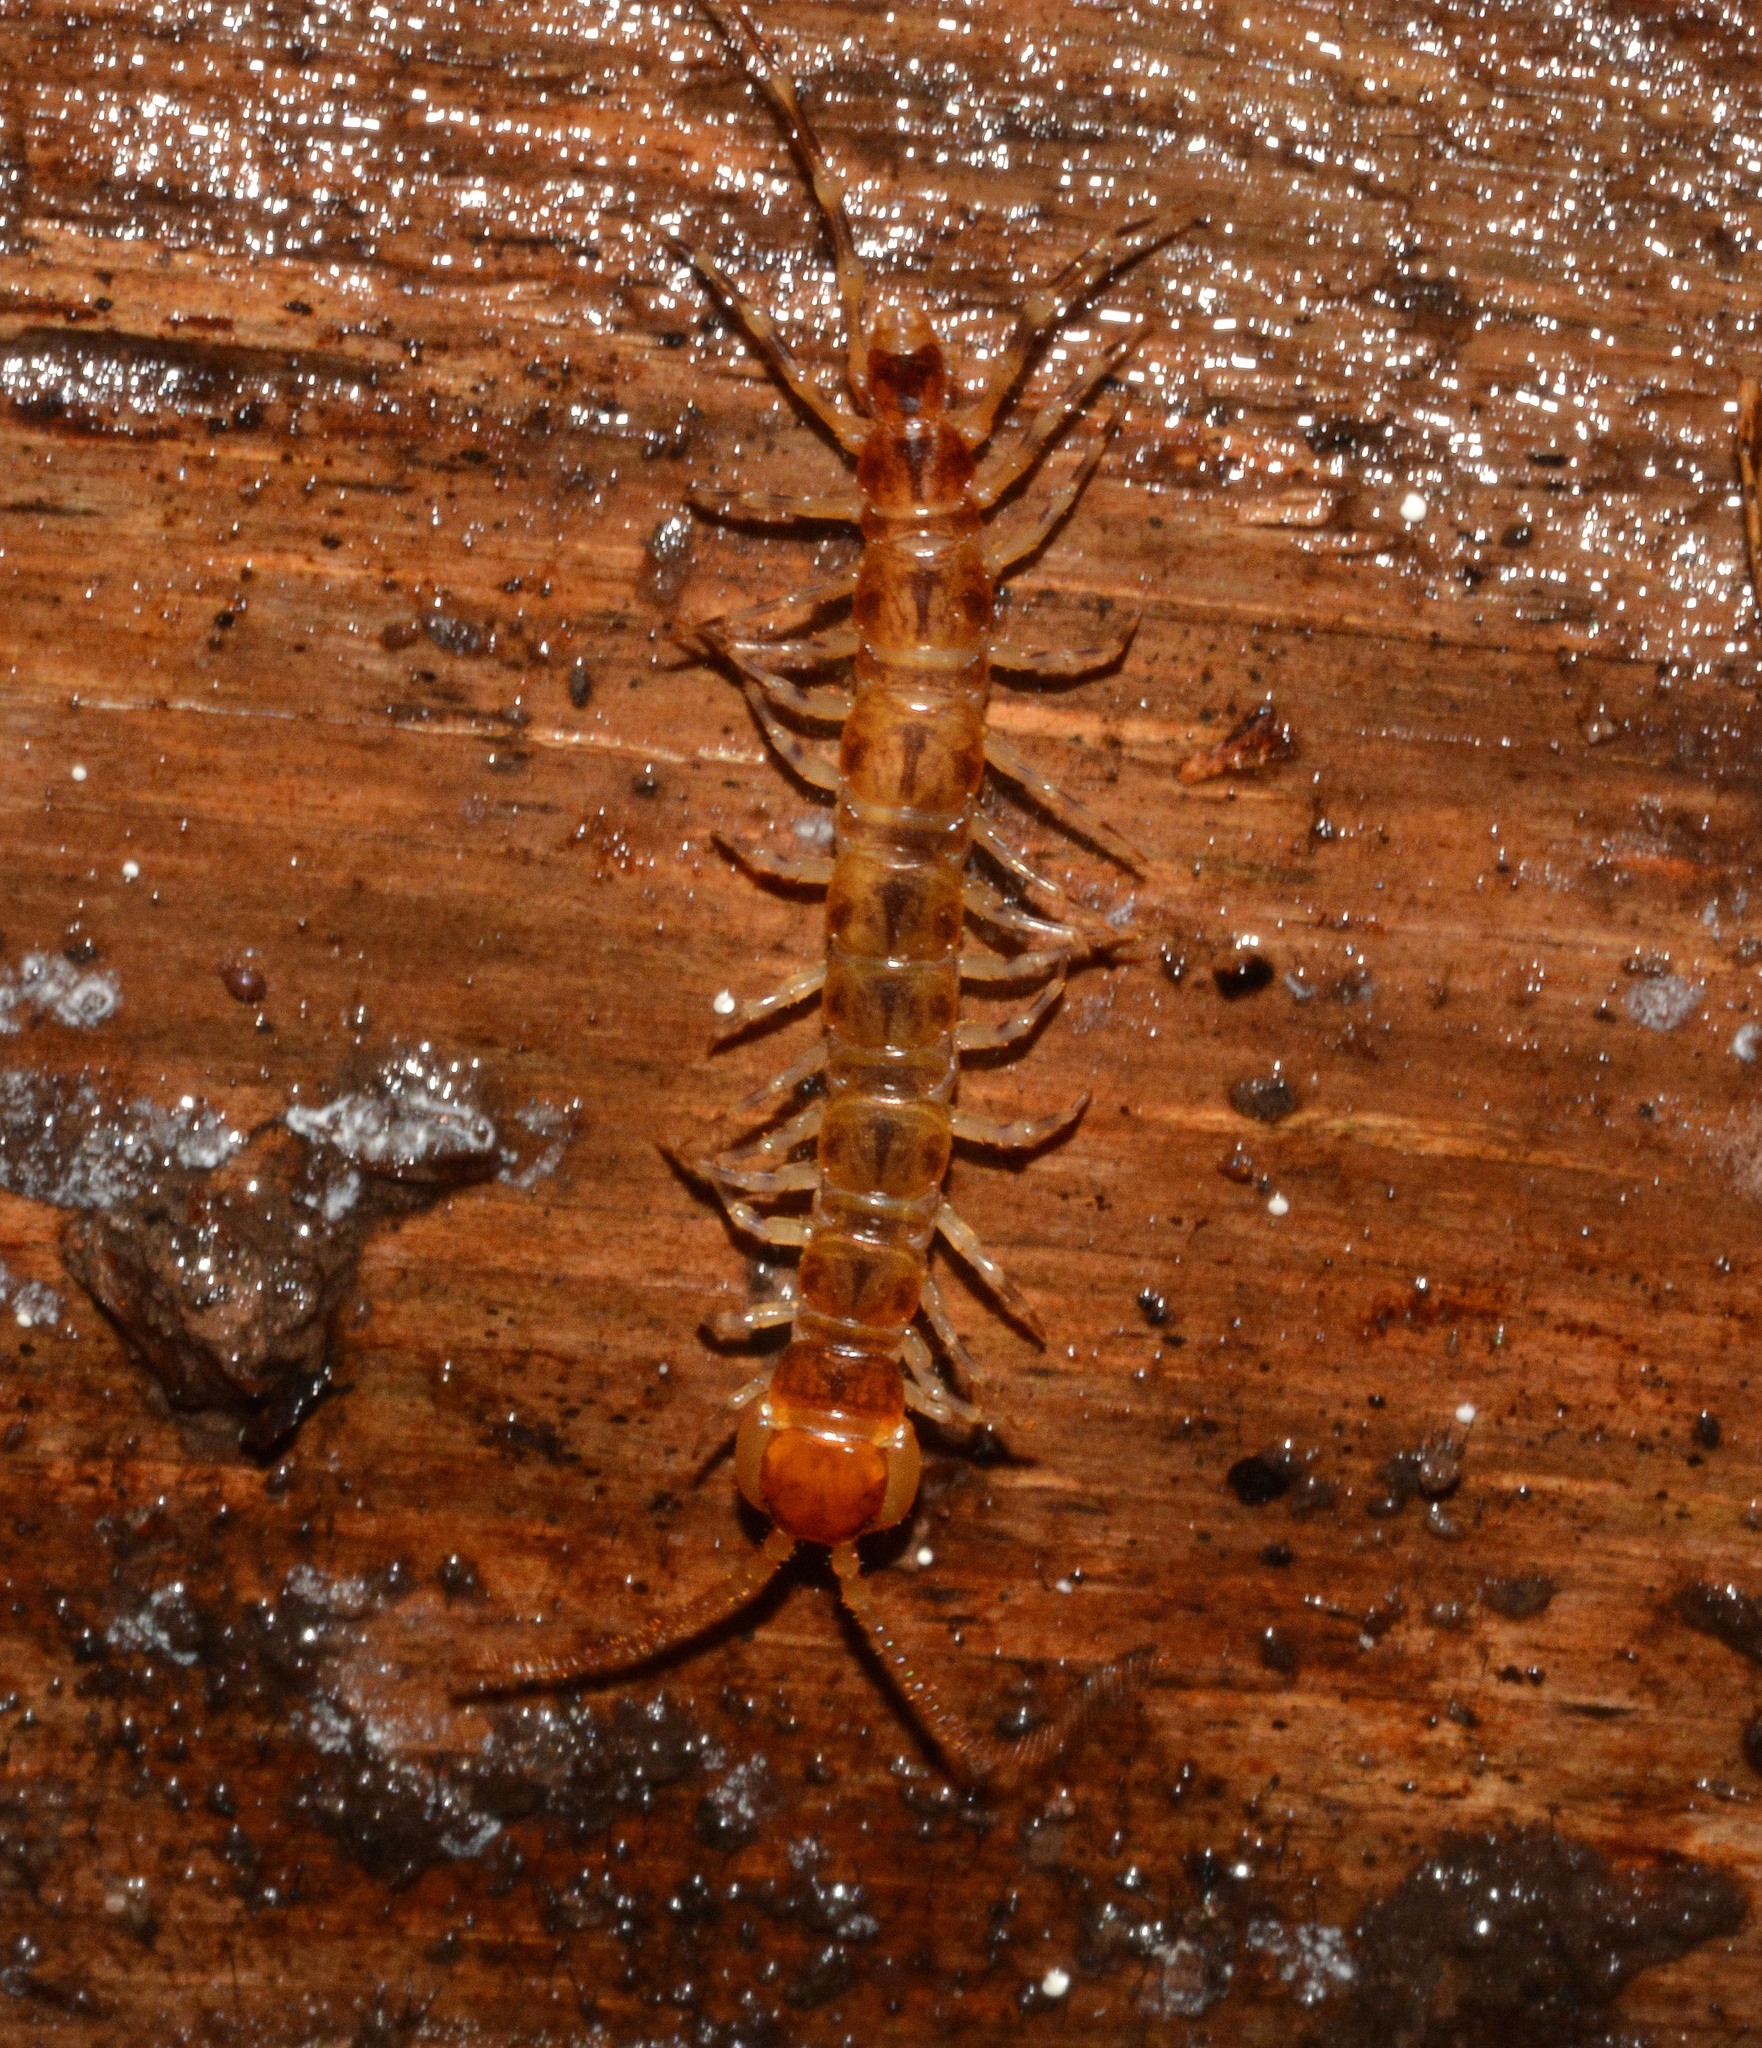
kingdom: Animalia
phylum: Arthropoda
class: Chilopoda
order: Lithobiomorpha
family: Lithobiidae
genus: Lithobius
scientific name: Lithobius variegatus
